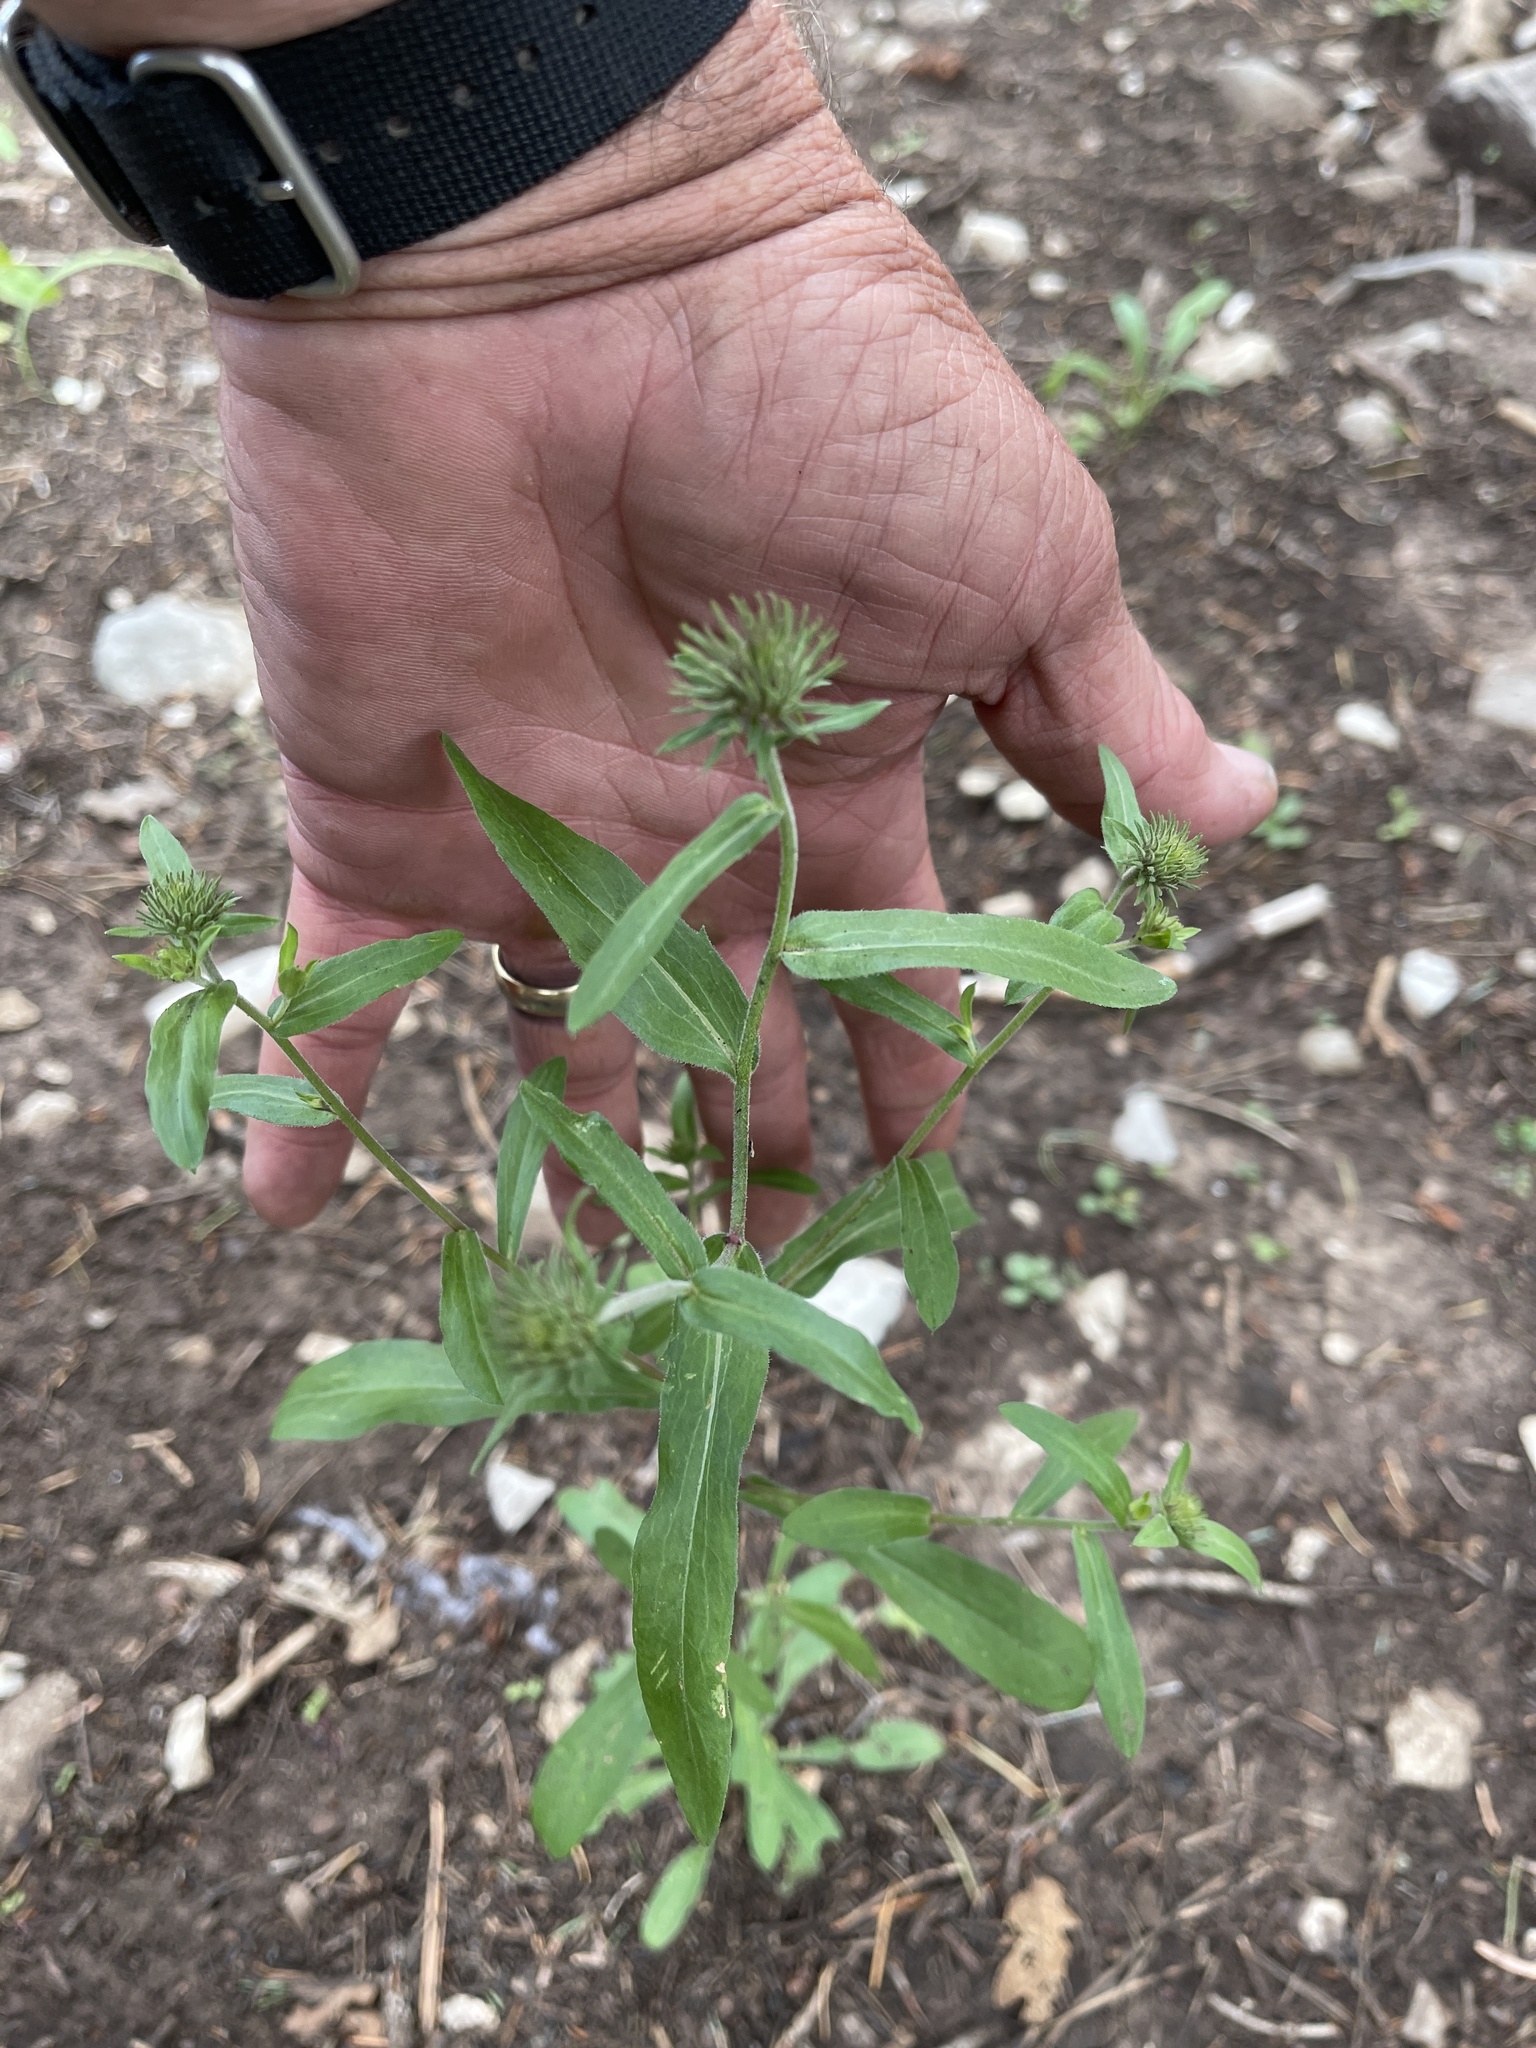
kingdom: Plantae
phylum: Tracheophyta
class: Magnoliopsida
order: Asterales
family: Asteraceae
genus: Grindelia
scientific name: Grindelia scabra
